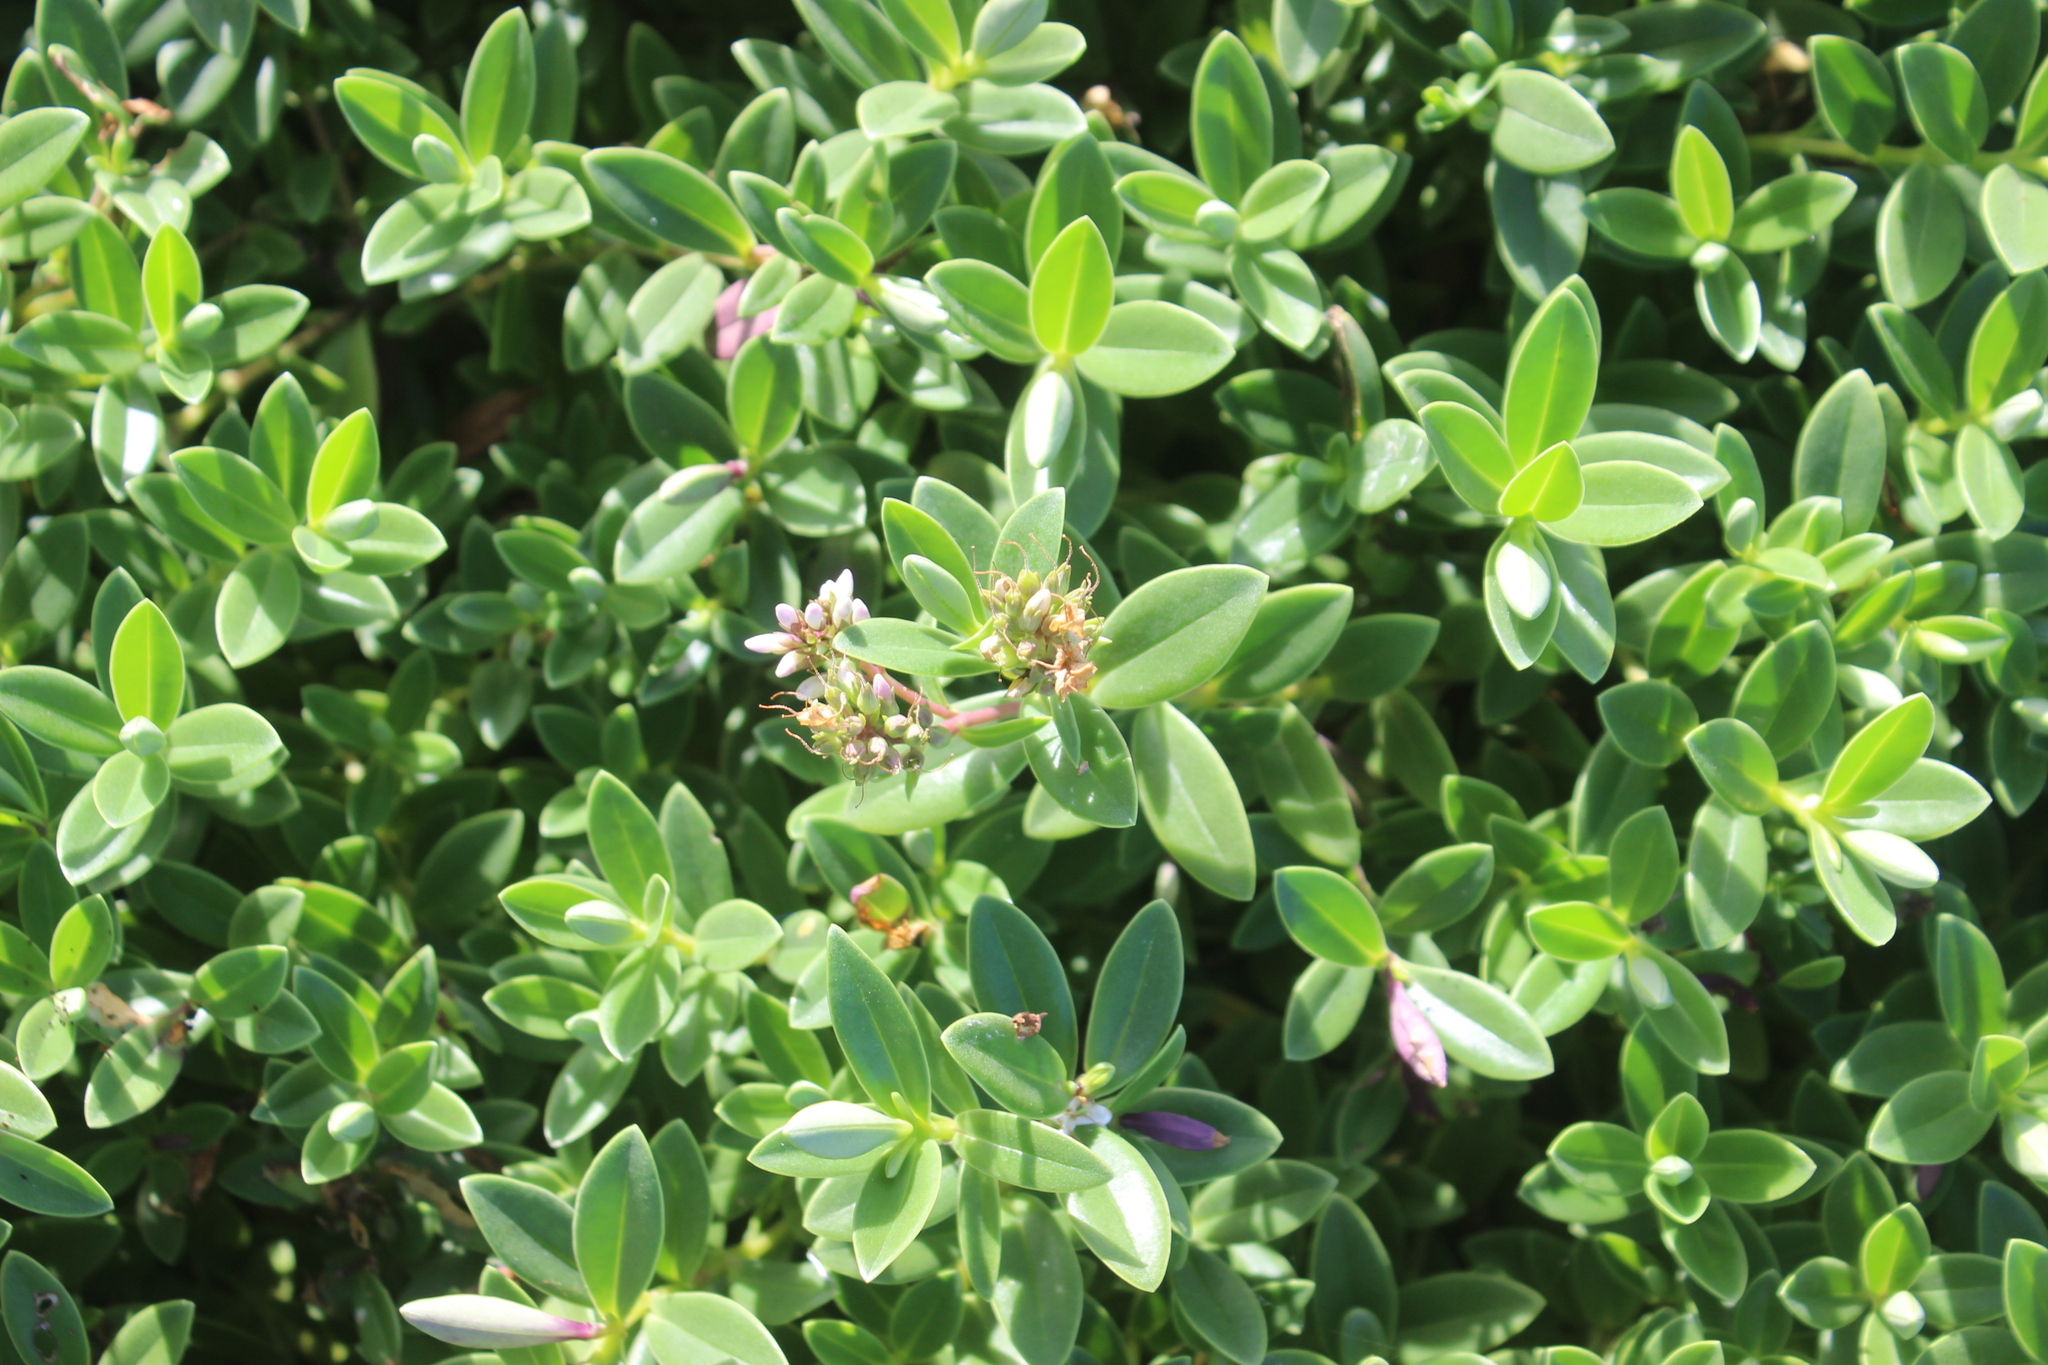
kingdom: Plantae
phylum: Tracheophyta
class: Magnoliopsida
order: Lamiales
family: Plantaginaceae
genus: Veronica
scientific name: Veronica chathamica
